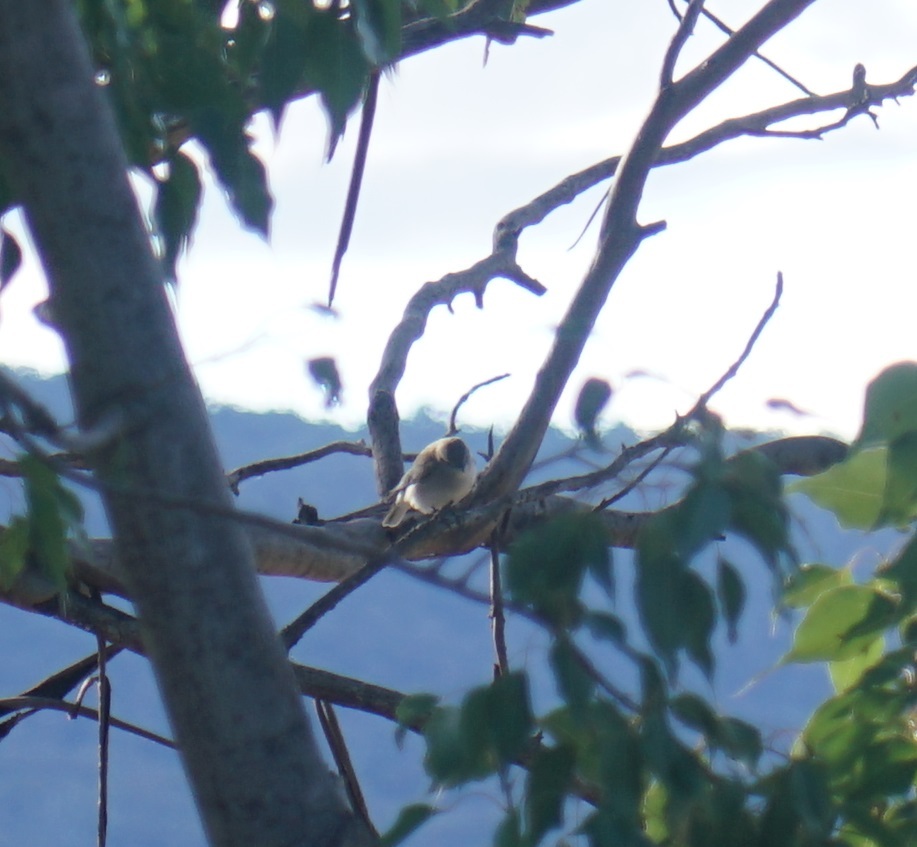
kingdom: Animalia
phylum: Chordata
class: Aves
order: Passeriformes
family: Petroicidae
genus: Microeca
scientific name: Microeca fascinans
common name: Jacky winter
